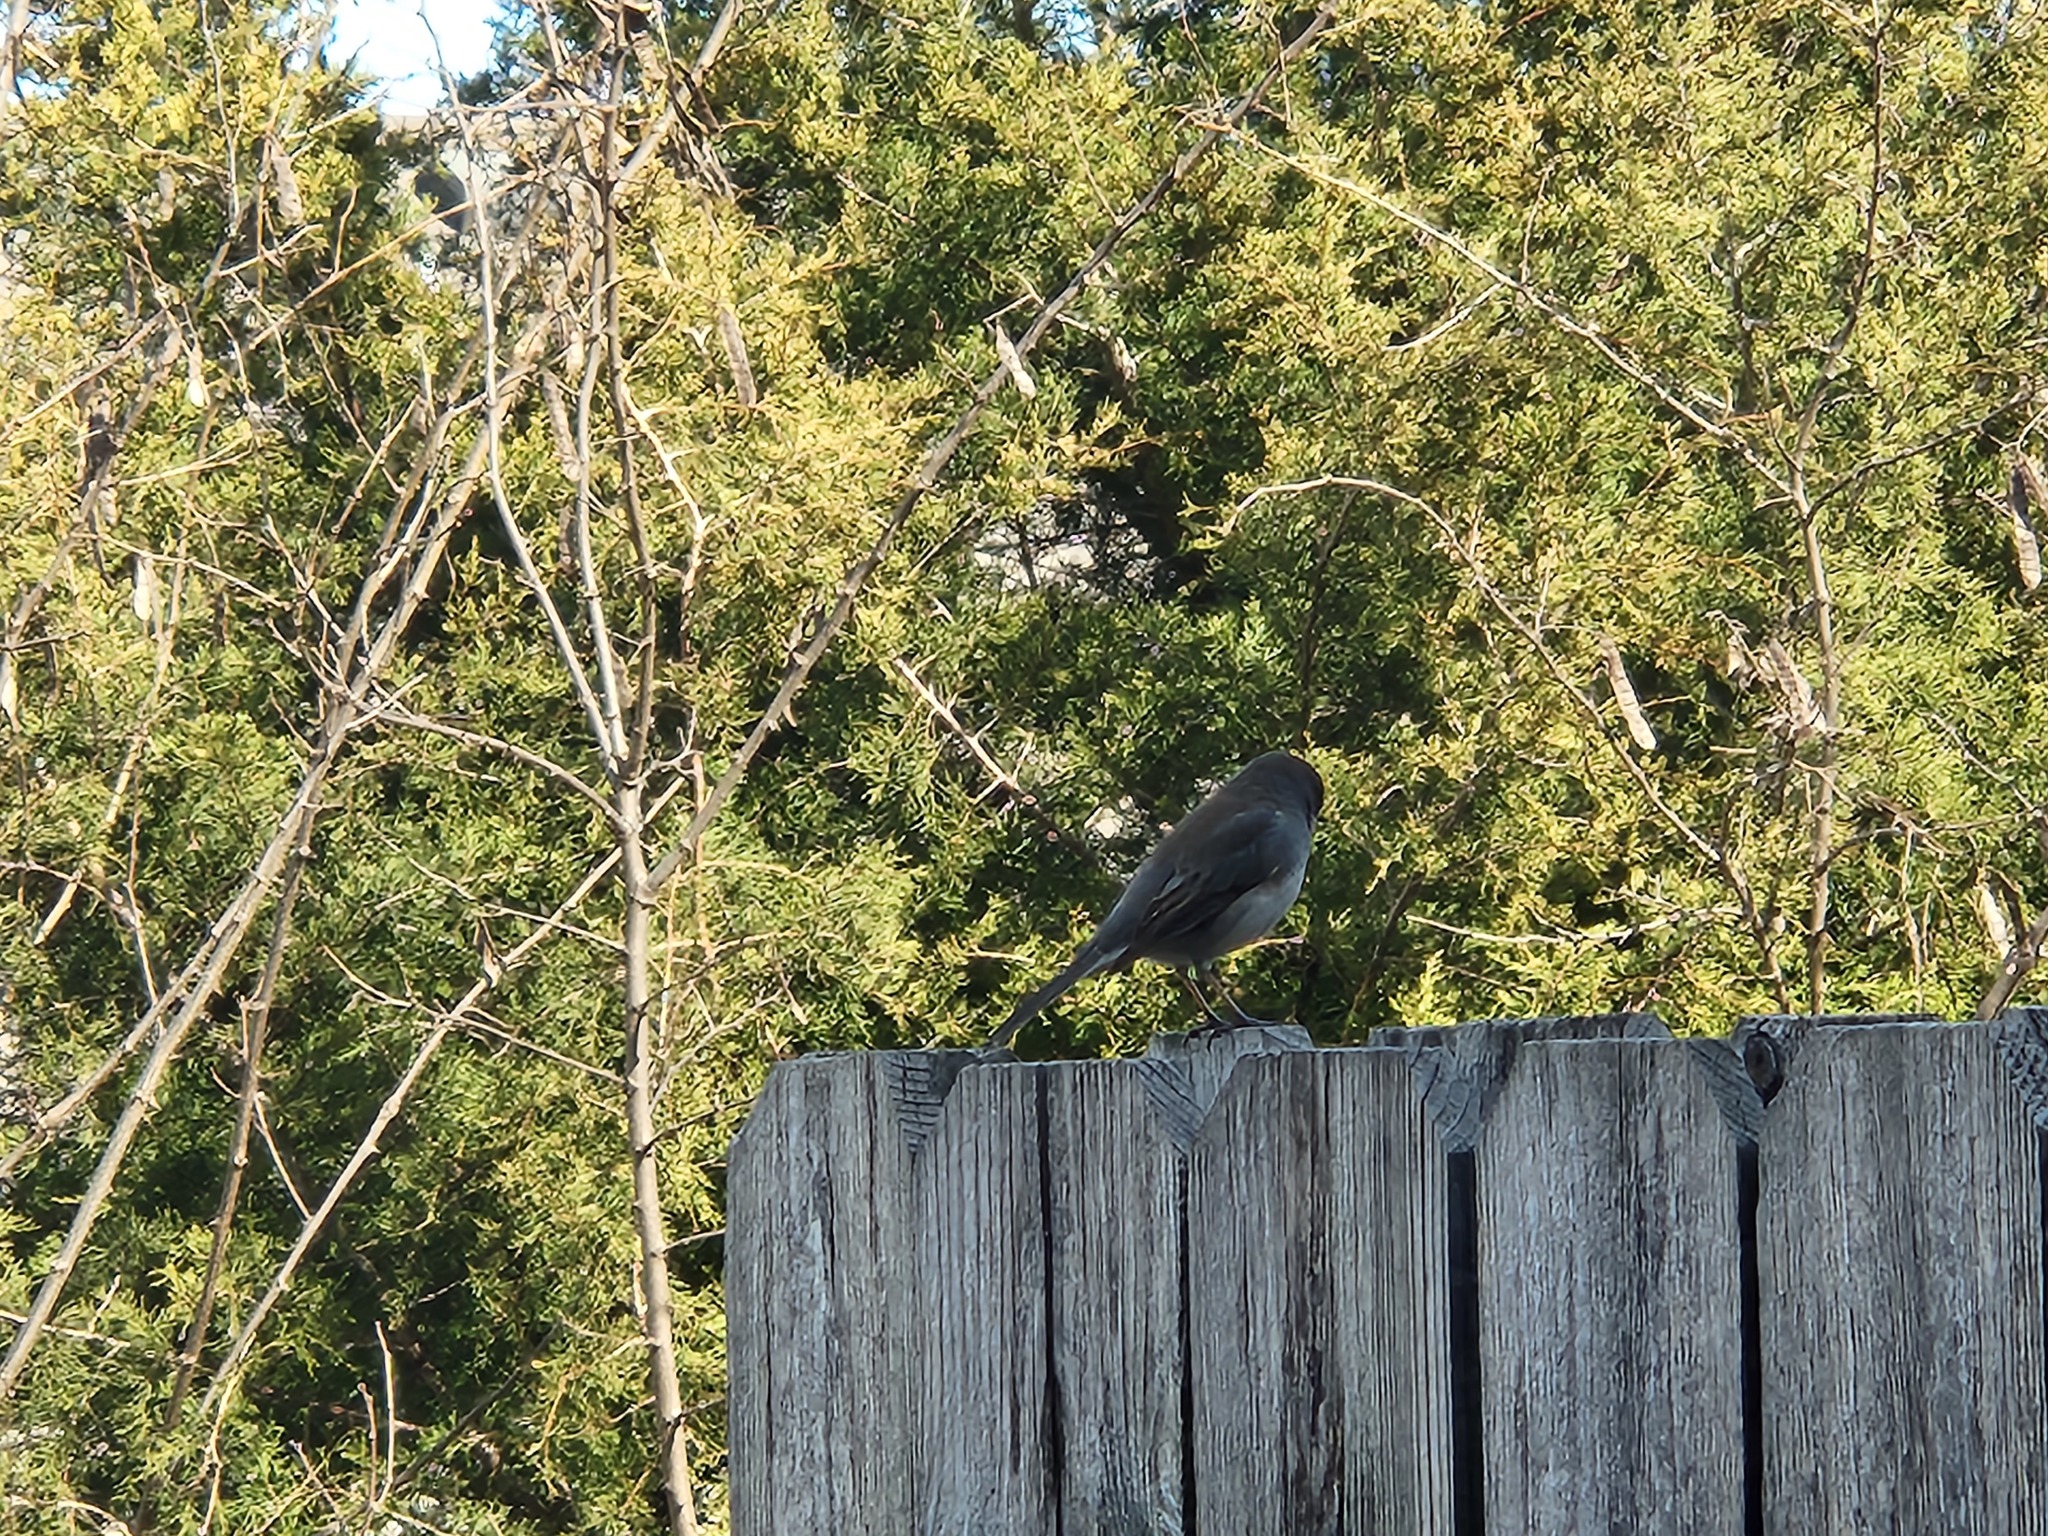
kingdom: Animalia
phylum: Chordata
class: Aves
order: Passeriformes
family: Passerellidae
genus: Junco
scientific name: Junco hyemalis
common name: Dark-eyed junco
